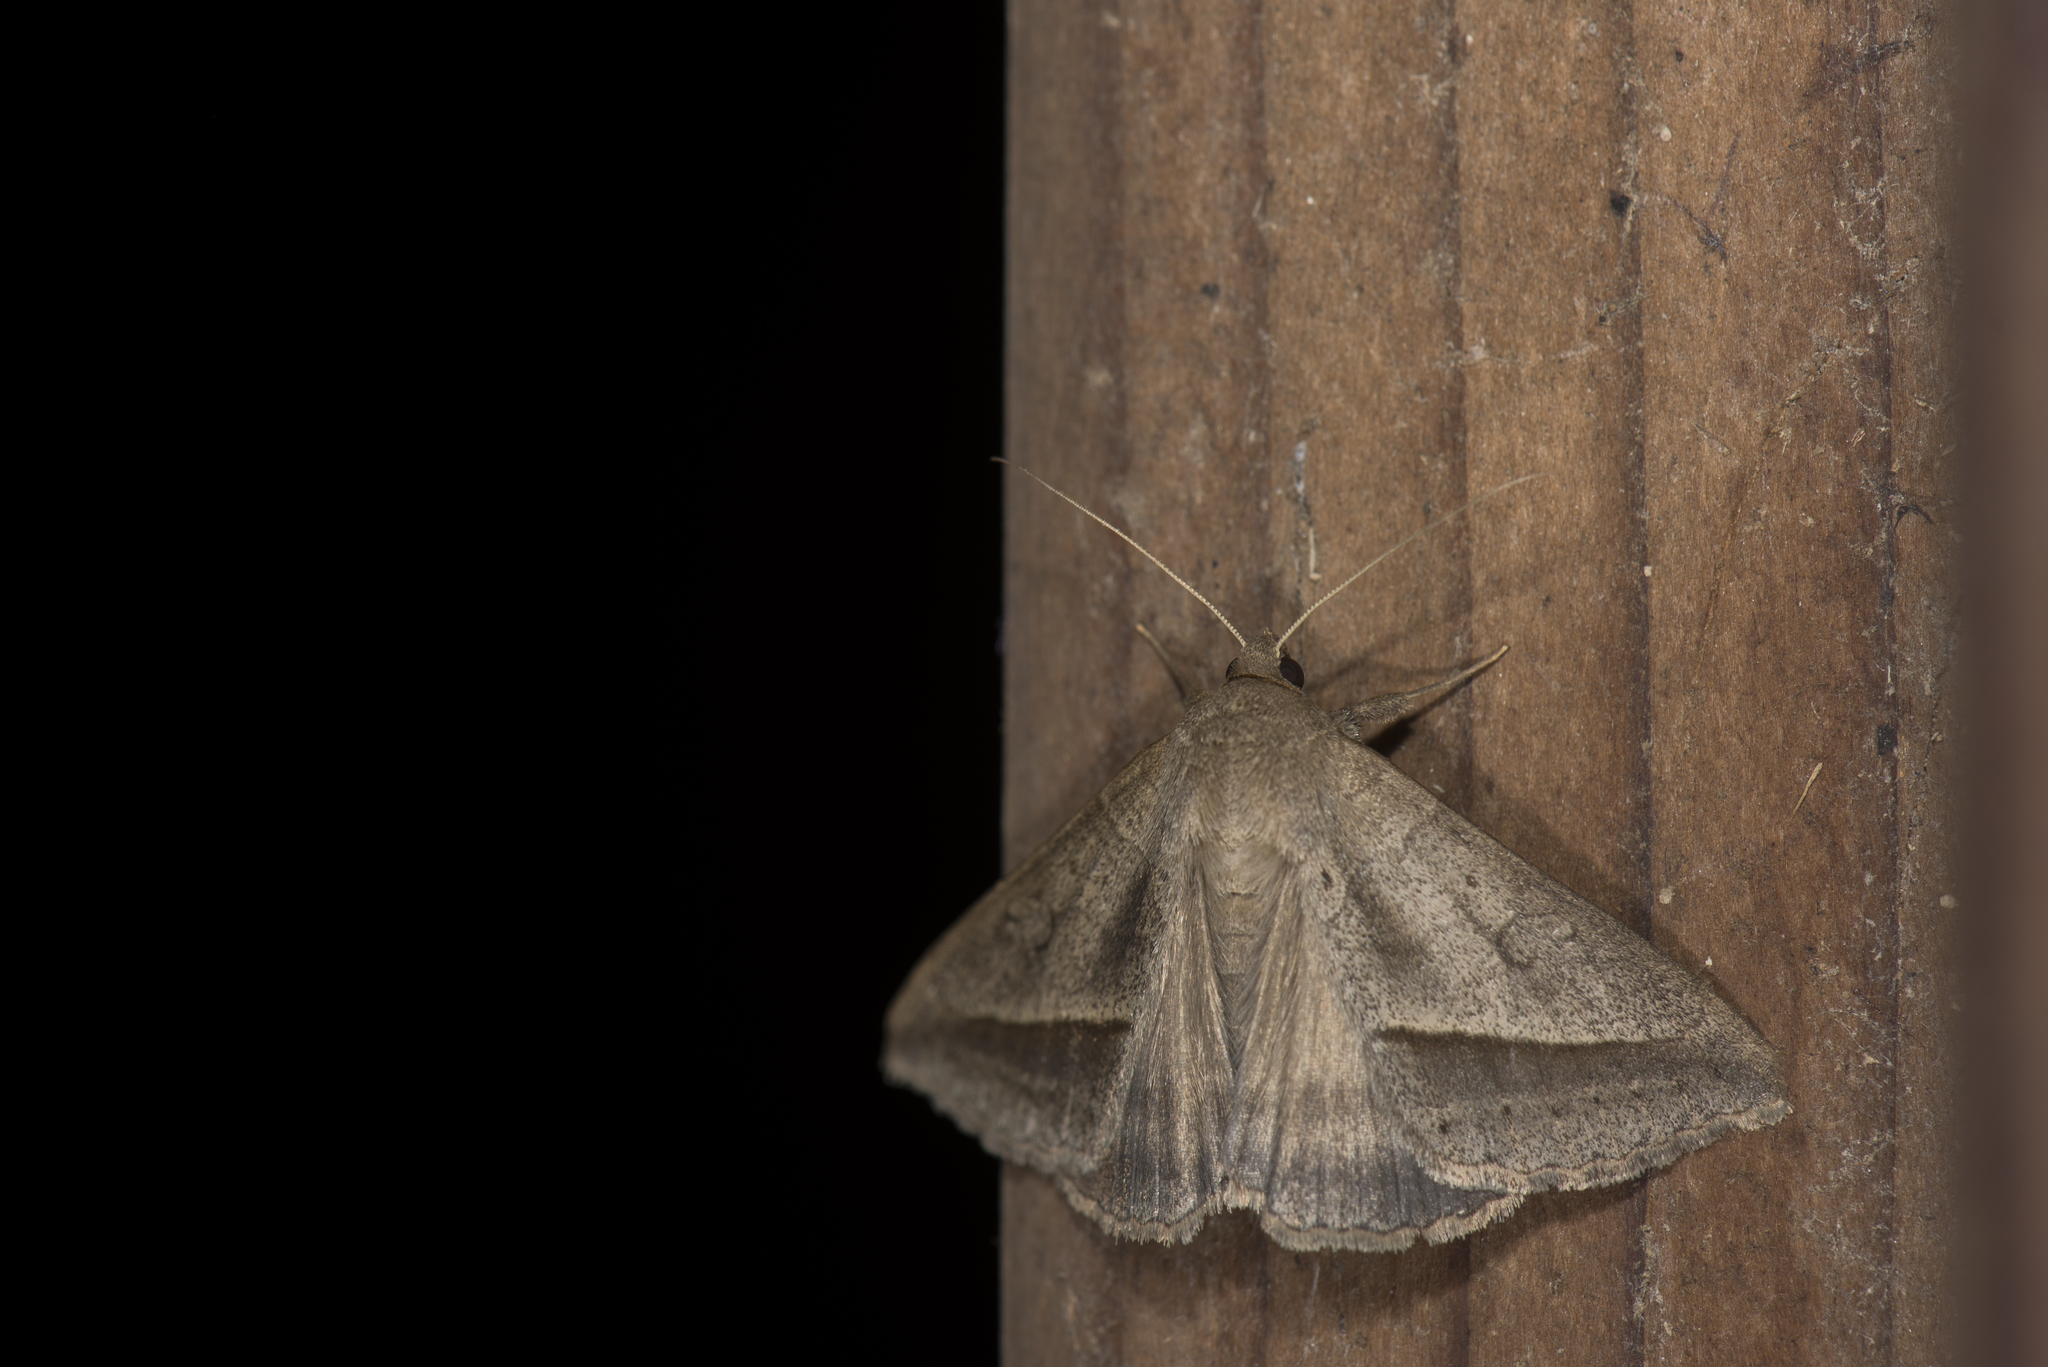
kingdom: Animalia
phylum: Arthropoda
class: Insecta
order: Lepidoptera
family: Erebidae
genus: Mocis
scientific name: Mocis frugalis
